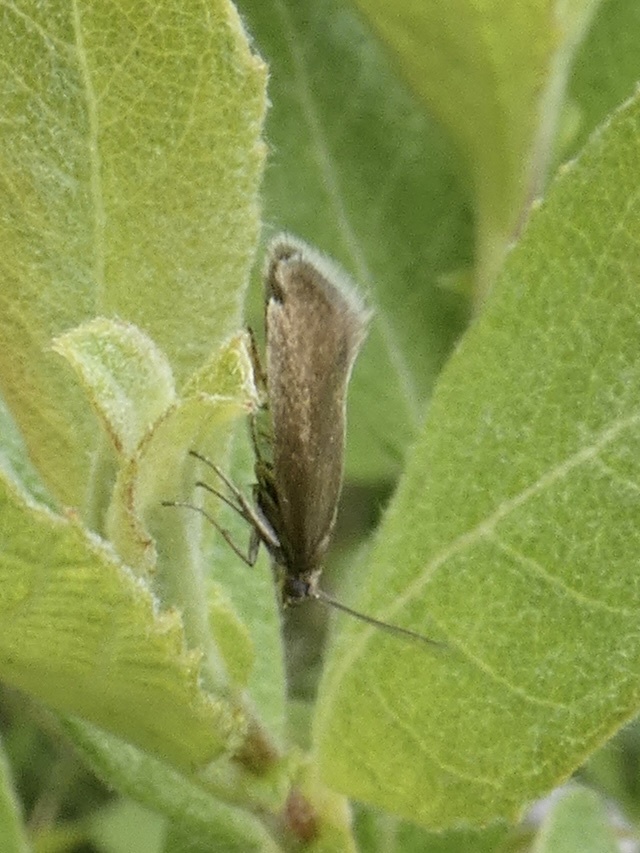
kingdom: Animalia
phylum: Arthropoda
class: Insecta
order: Lepidoptera
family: Glyphipterigidae
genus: Glyphipterix
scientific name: Glyphipterix fuscoviridella
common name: Plain fanner
